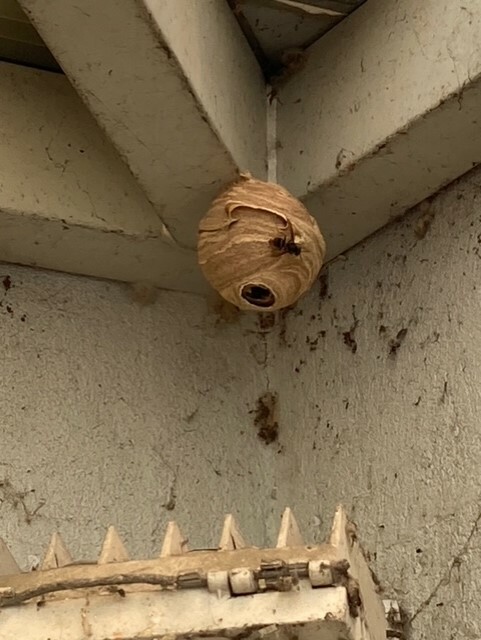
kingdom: Animalia
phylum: Arthropoda
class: Insecta
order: Hymenoptera
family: Vespidae
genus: Vespa
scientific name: Vespa velutina
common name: Asian hornet
